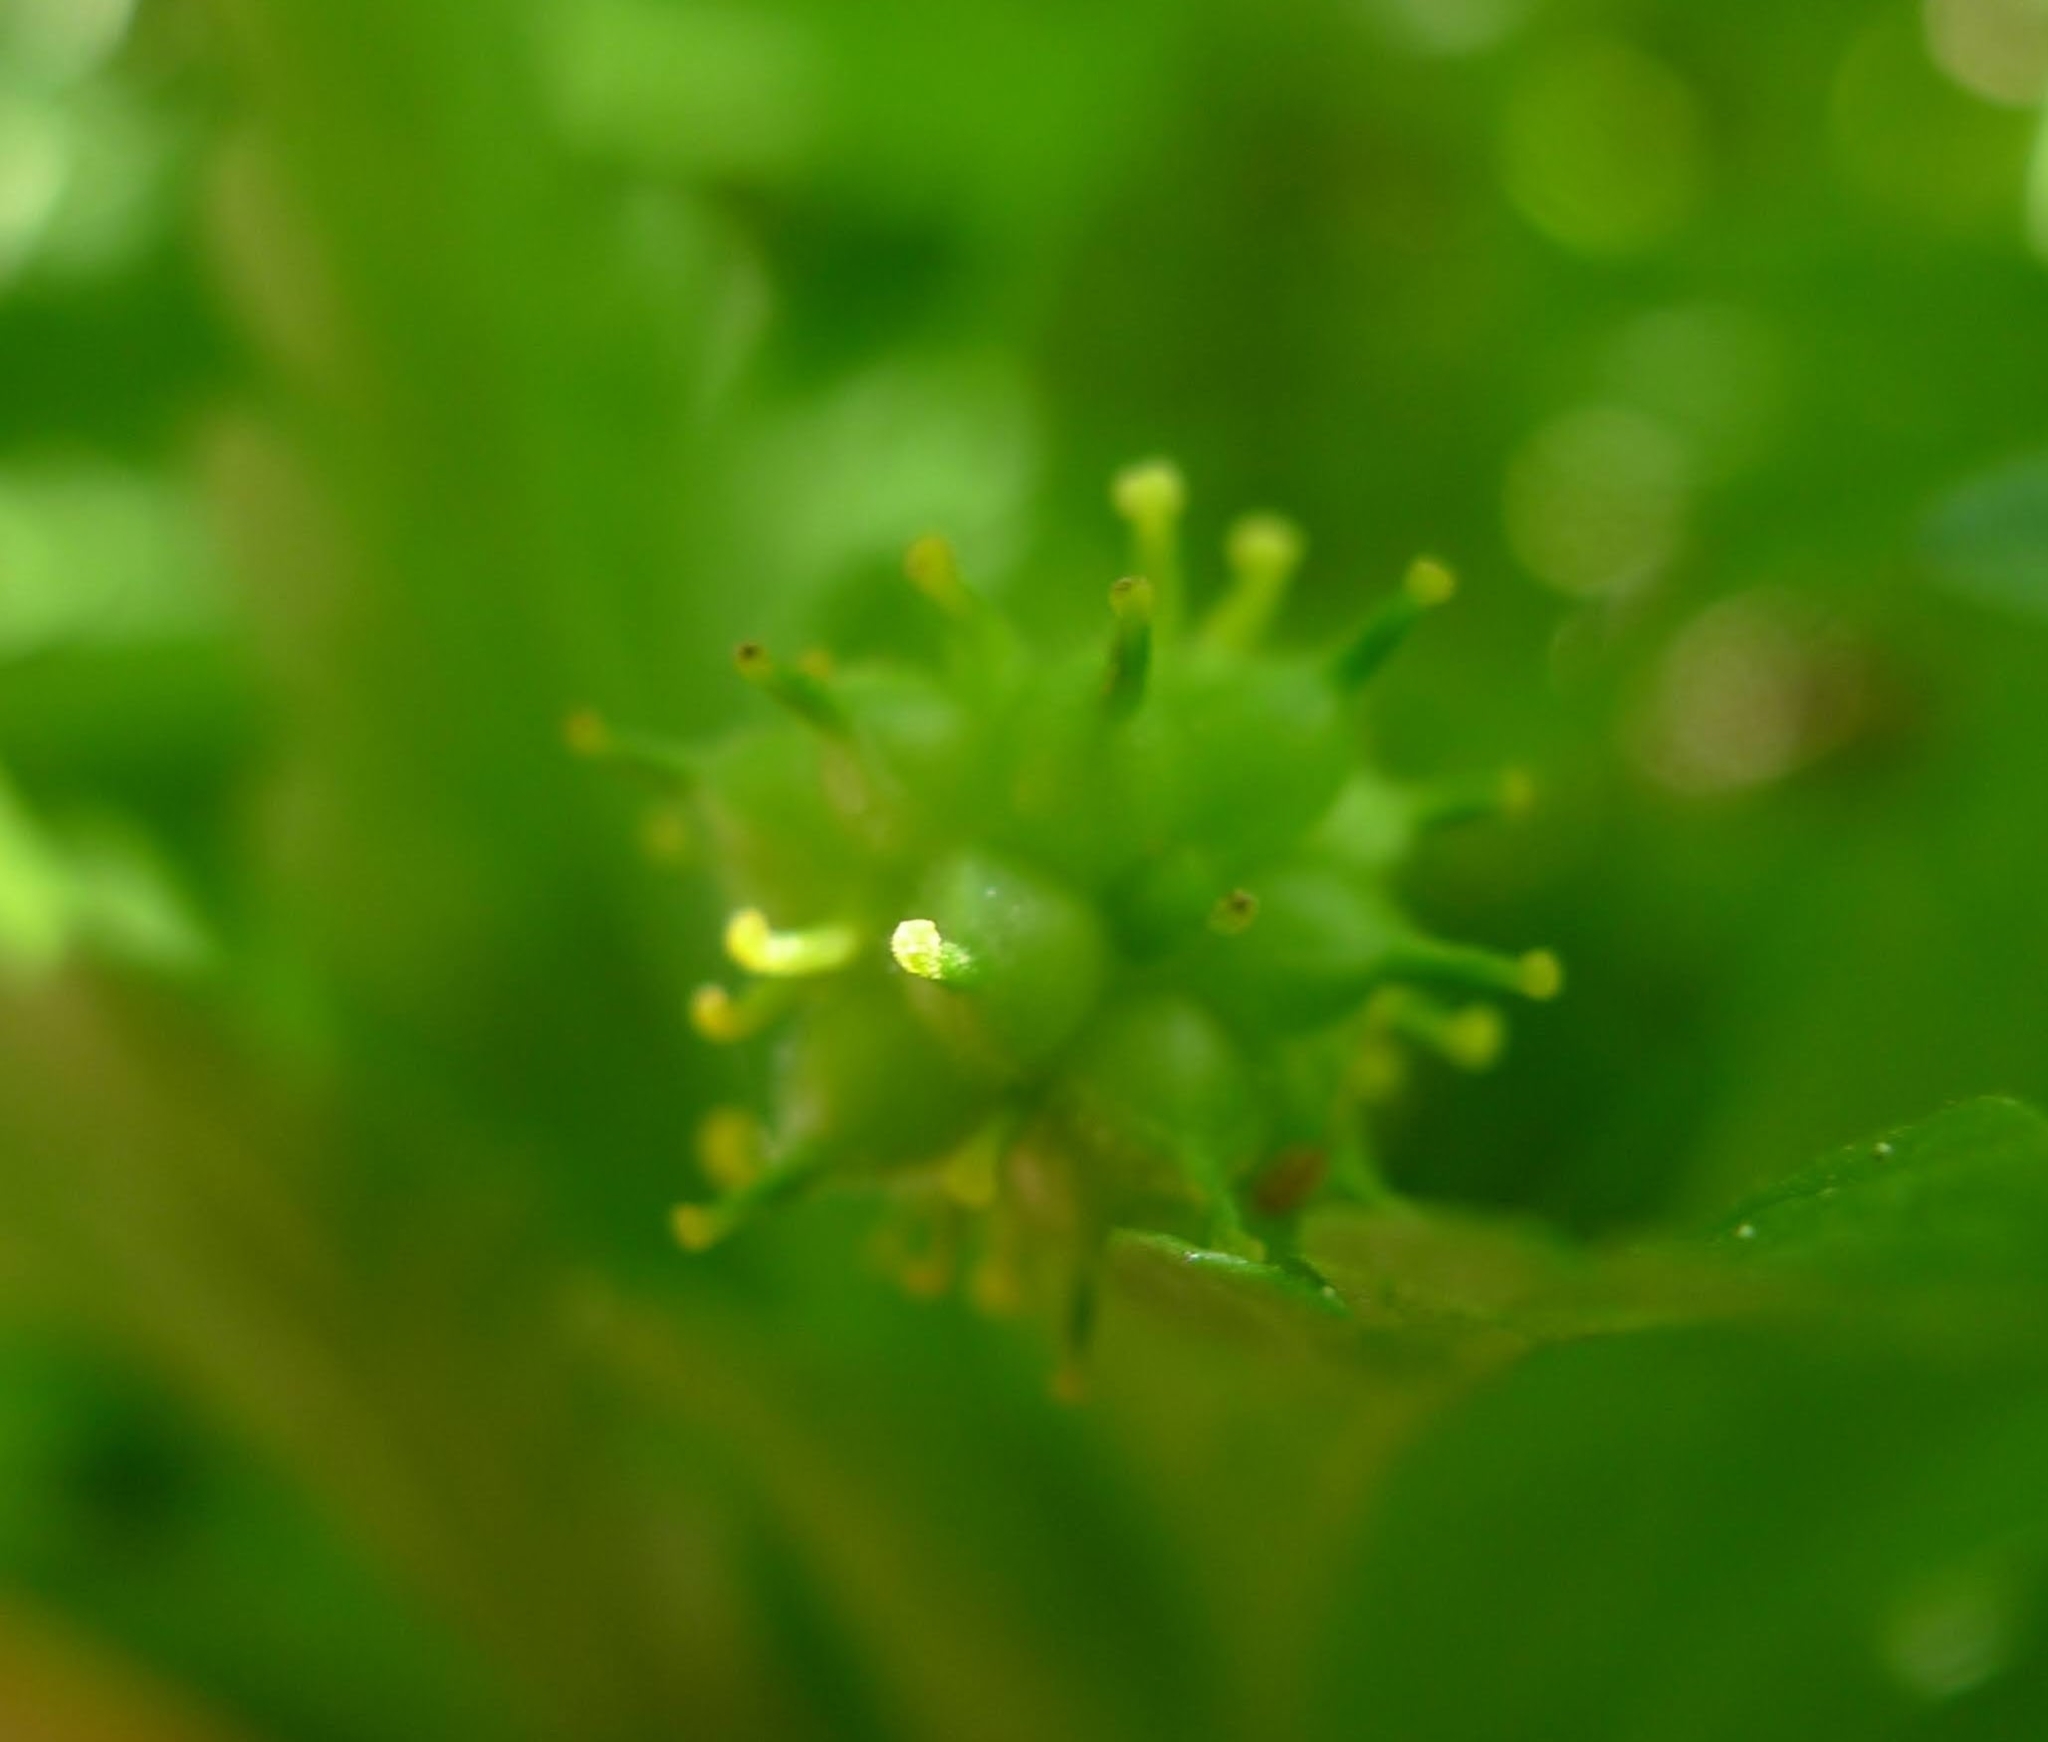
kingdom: Plantae
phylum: Tracheophyta
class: Magnoliopsida
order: Ranunculales
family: Ranunculaceae
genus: Anemone
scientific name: Anemone ranunculoides
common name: Yellow anemone
